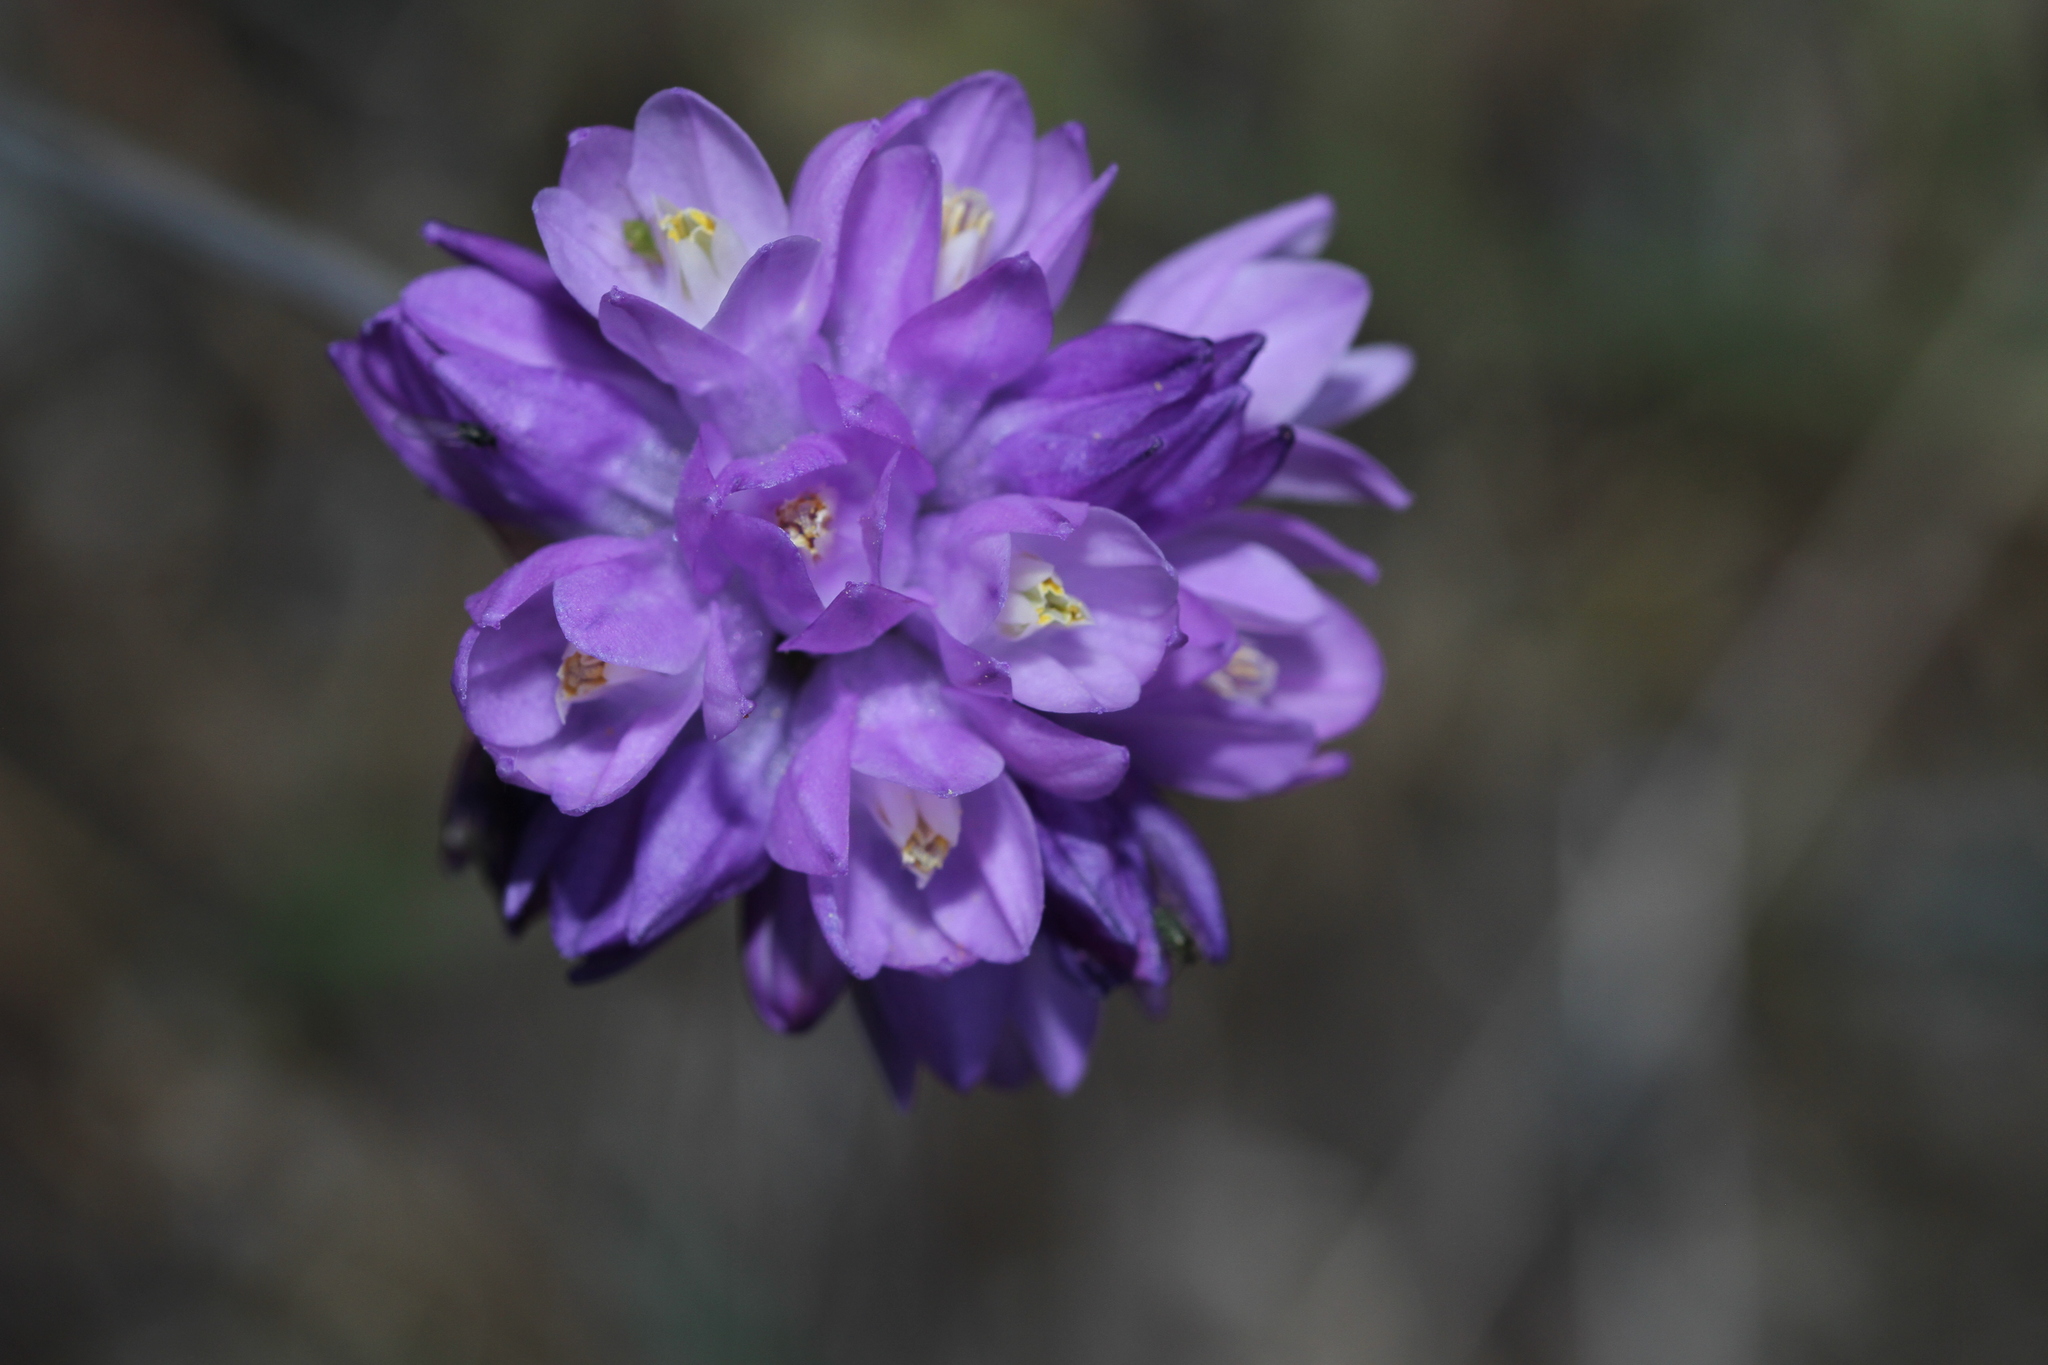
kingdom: Plantae
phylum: Tracheophyta
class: Liliopsida
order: Asparagales
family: Asparagaceae
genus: Dipterostemon
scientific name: Dipterostemon capitatus
